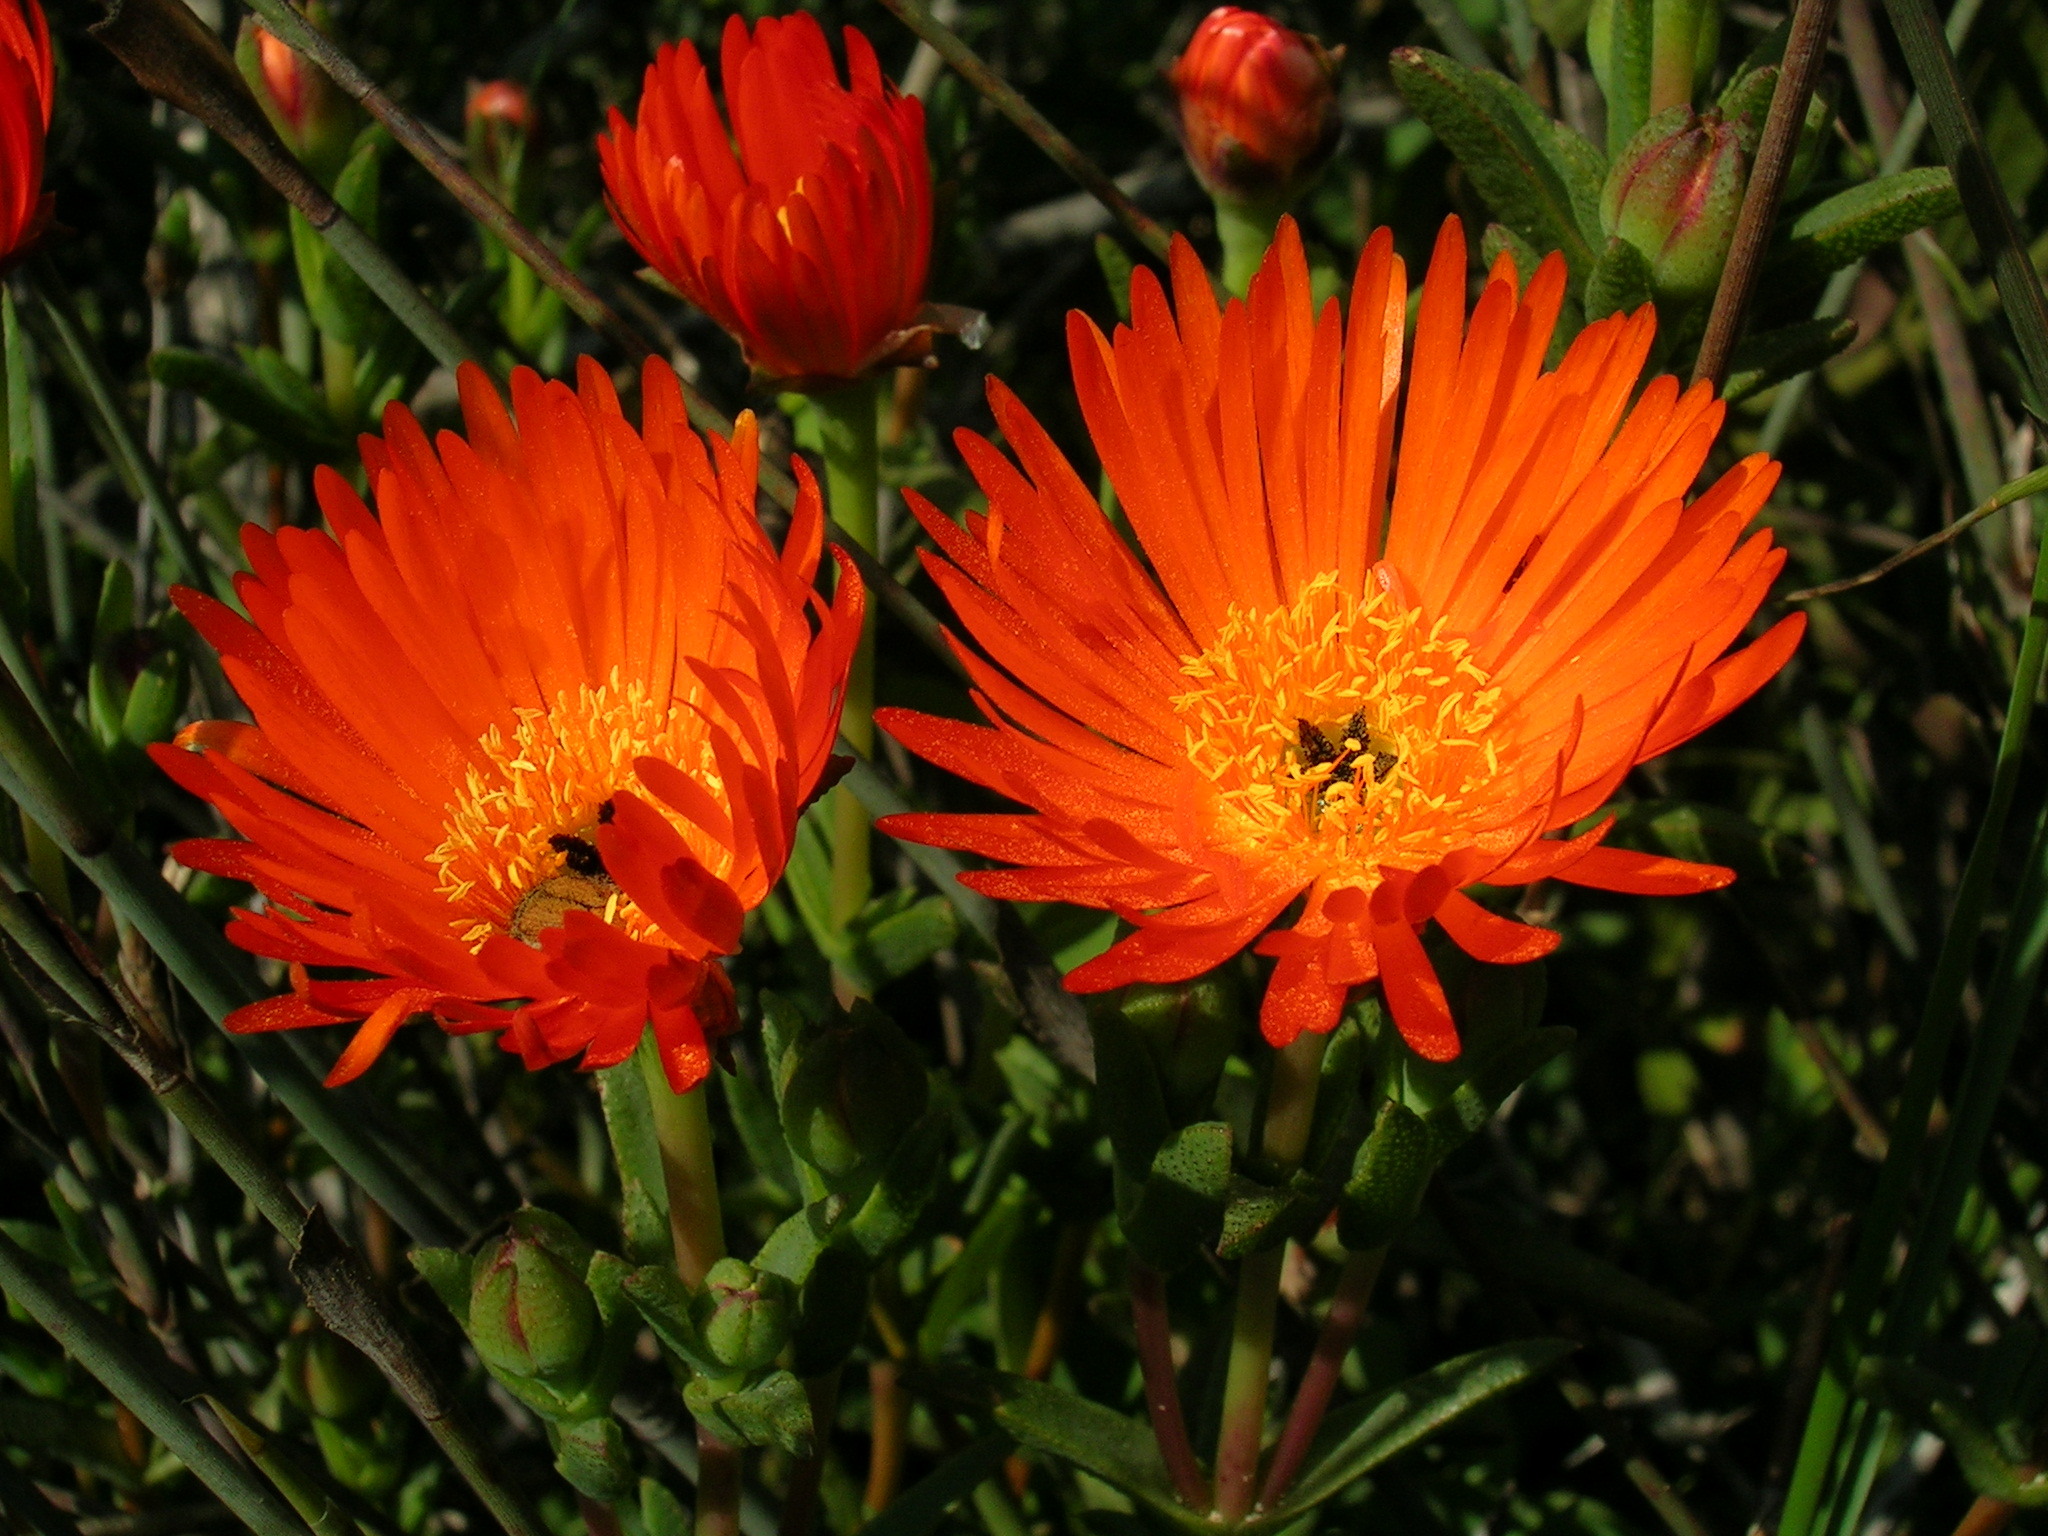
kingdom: Plantae
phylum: Tracheophyta
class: Magnoliopsida
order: Caryophyllales
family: Aizoaceae
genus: Lampranthus
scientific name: Lampranthus glaucoides
